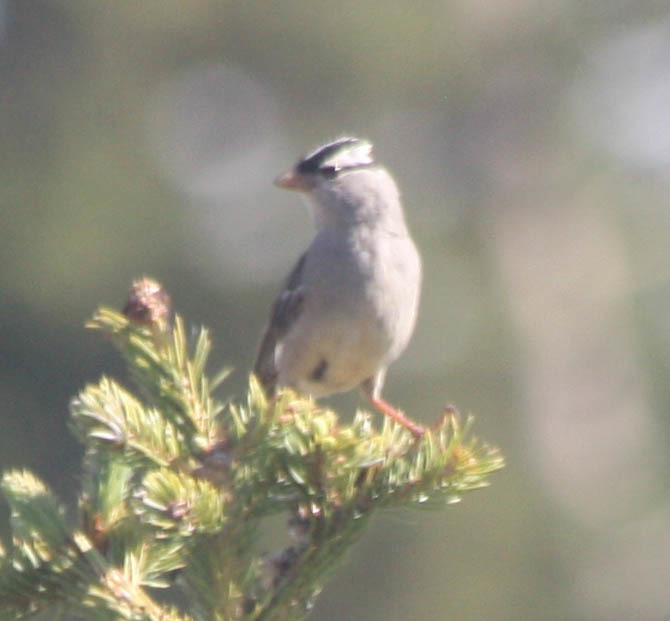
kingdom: Animalia
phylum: Chordata
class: Aves
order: Passeriformes
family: Passerellidae
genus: Zonotrichia
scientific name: Zonotrichia leucophrys
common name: White-crowned sparrow
